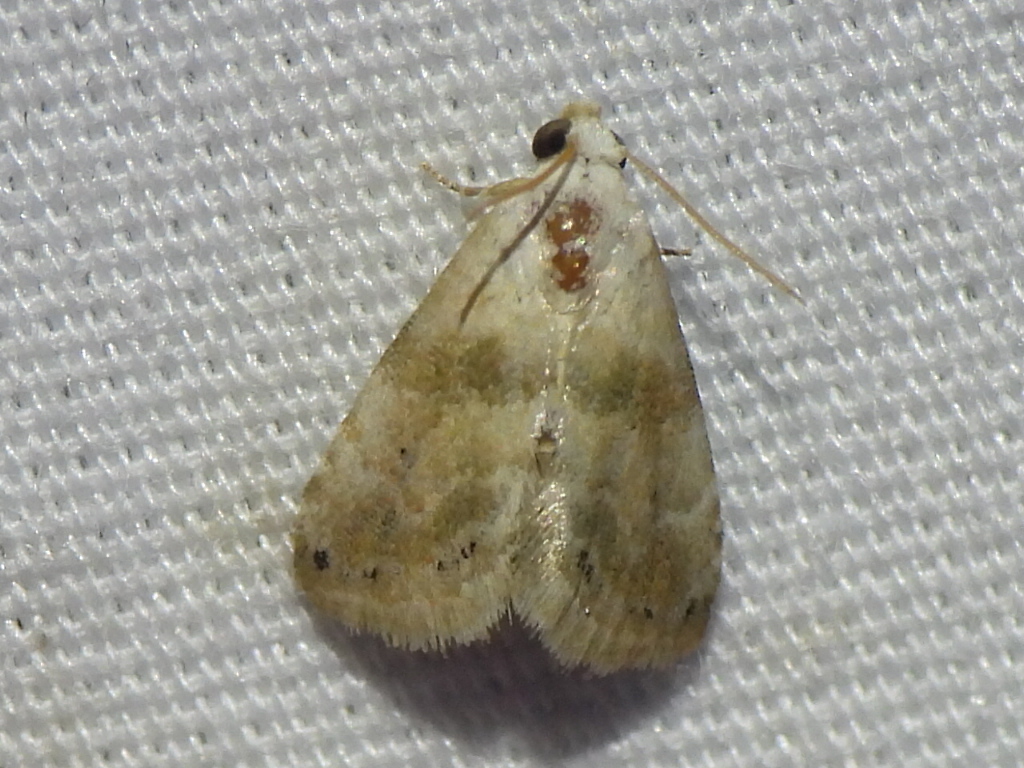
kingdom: Animalia
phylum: Arthropoda
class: Insecta
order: Lepidoptera
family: Noctuidae
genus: Eublemma
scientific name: Eublemma minima
